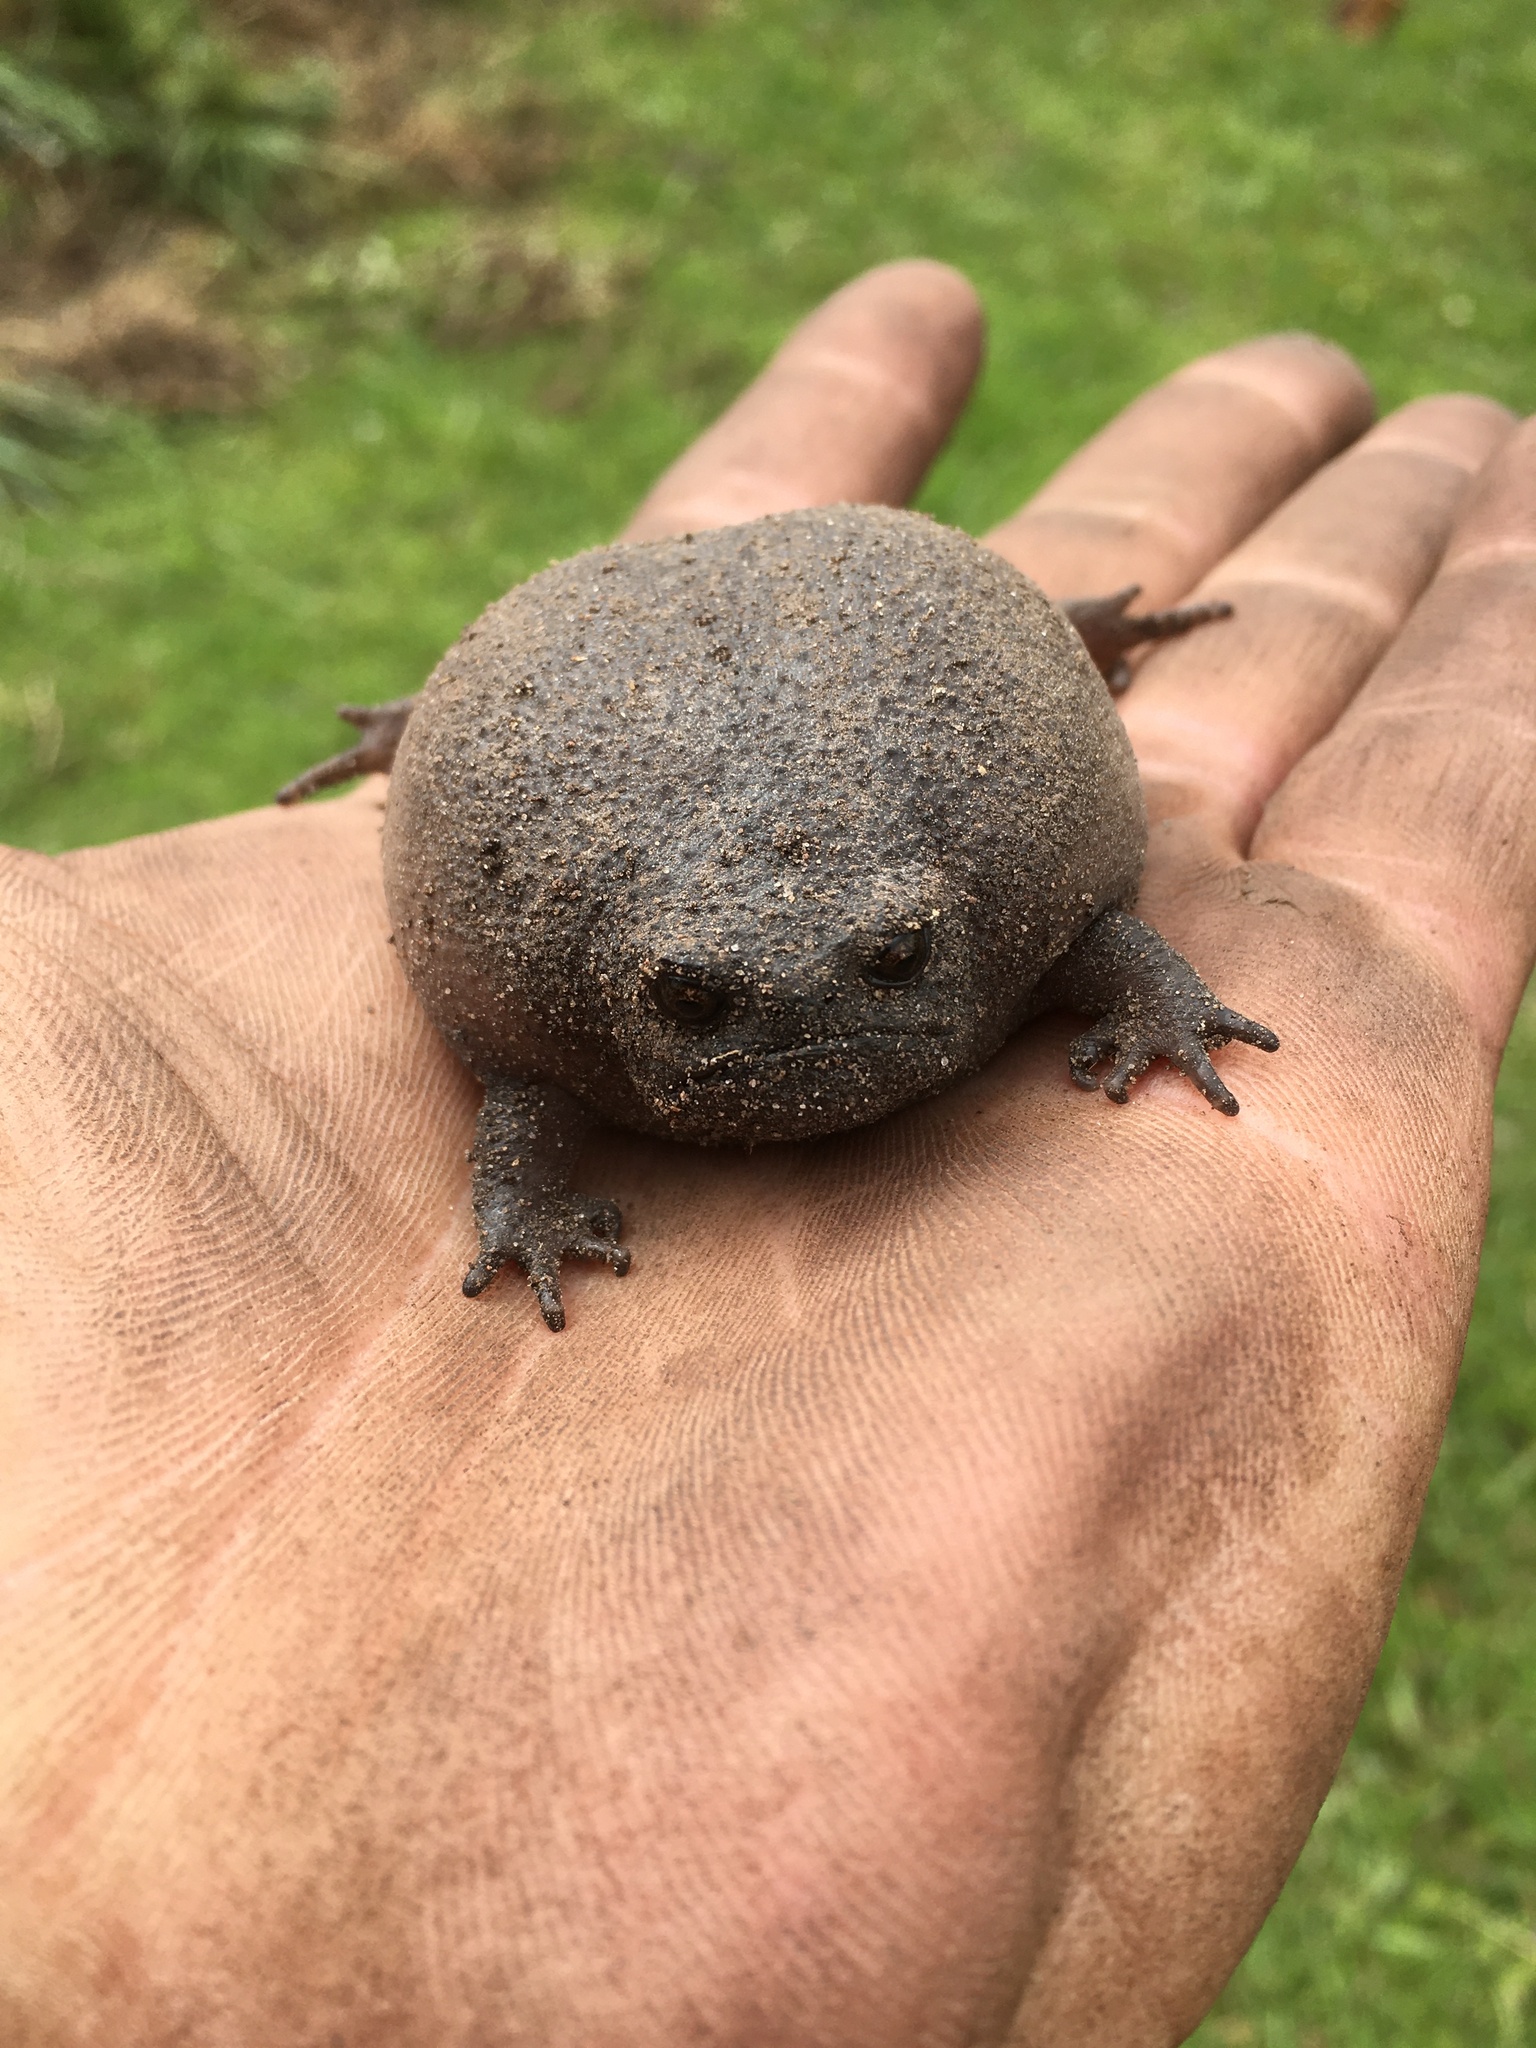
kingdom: Animalia
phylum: Chordata
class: Amphibia
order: Anura
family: Brevicipitidae
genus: Breviceps
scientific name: Breviceps fuscus
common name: Black rain frog
